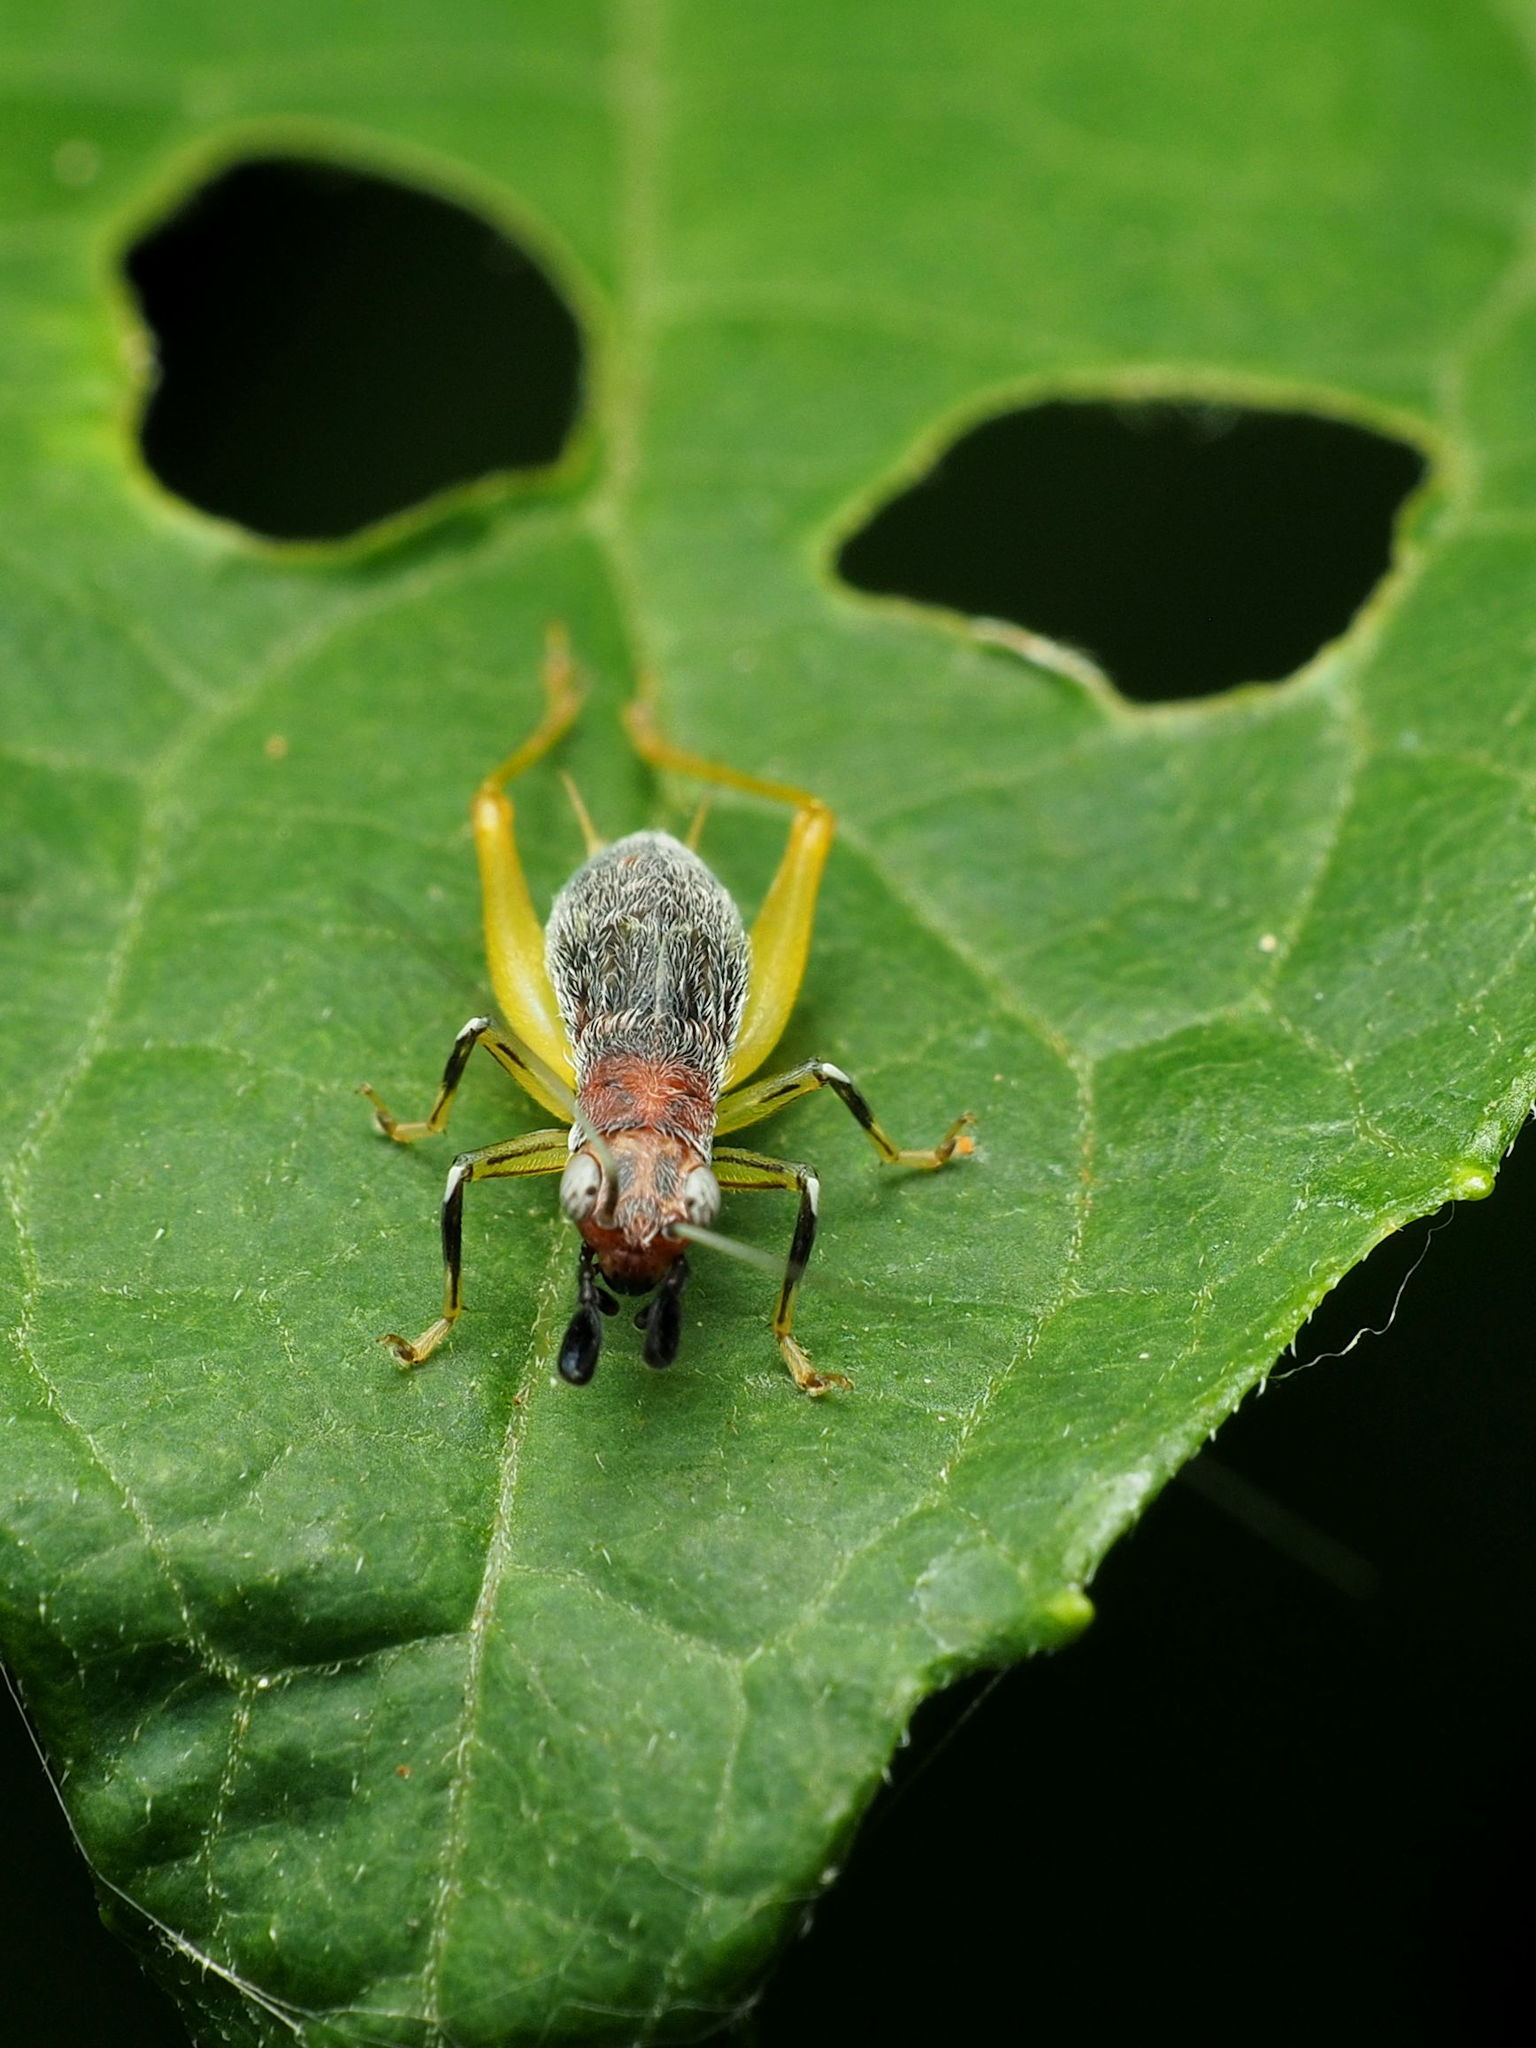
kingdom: Animalia
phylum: Arthropoda
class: Insecta
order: Orthoptera
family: Trigonidiidae
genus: Phyllopalpus
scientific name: Phyllopalpus pulchellus
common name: Handsome trig
